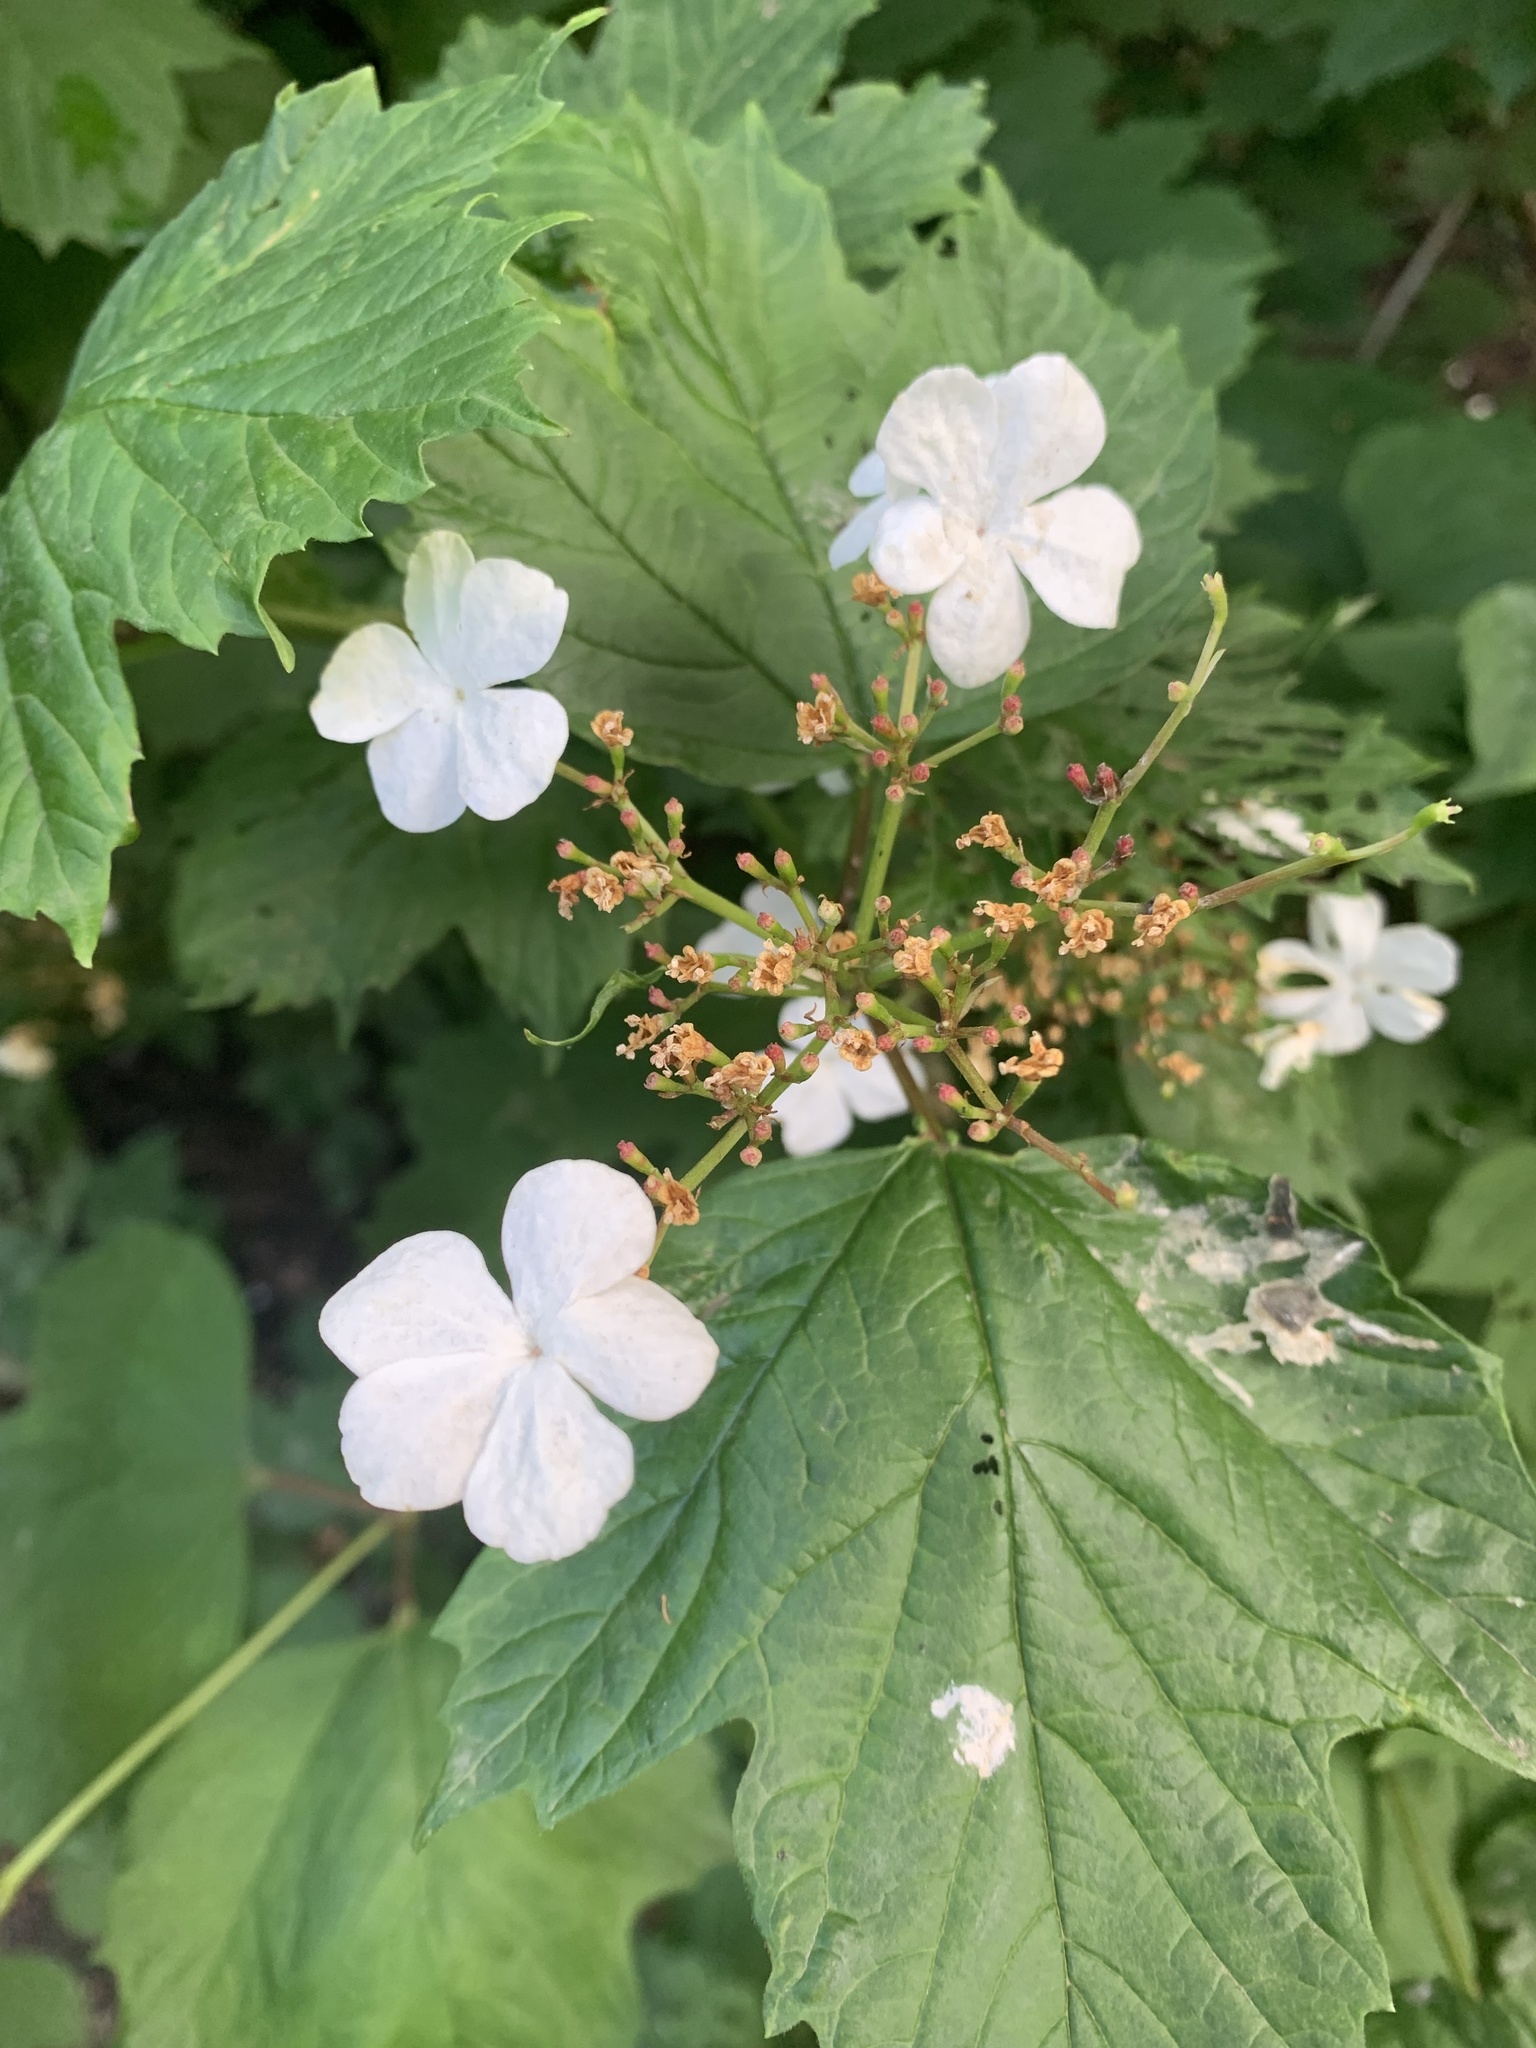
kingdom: Plantae
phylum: Tracheophyta
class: Magnoliopsida
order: Dipsacales
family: Viburnaceae
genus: Viburnum
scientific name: Viburnum opulus
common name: Guelder-rose
